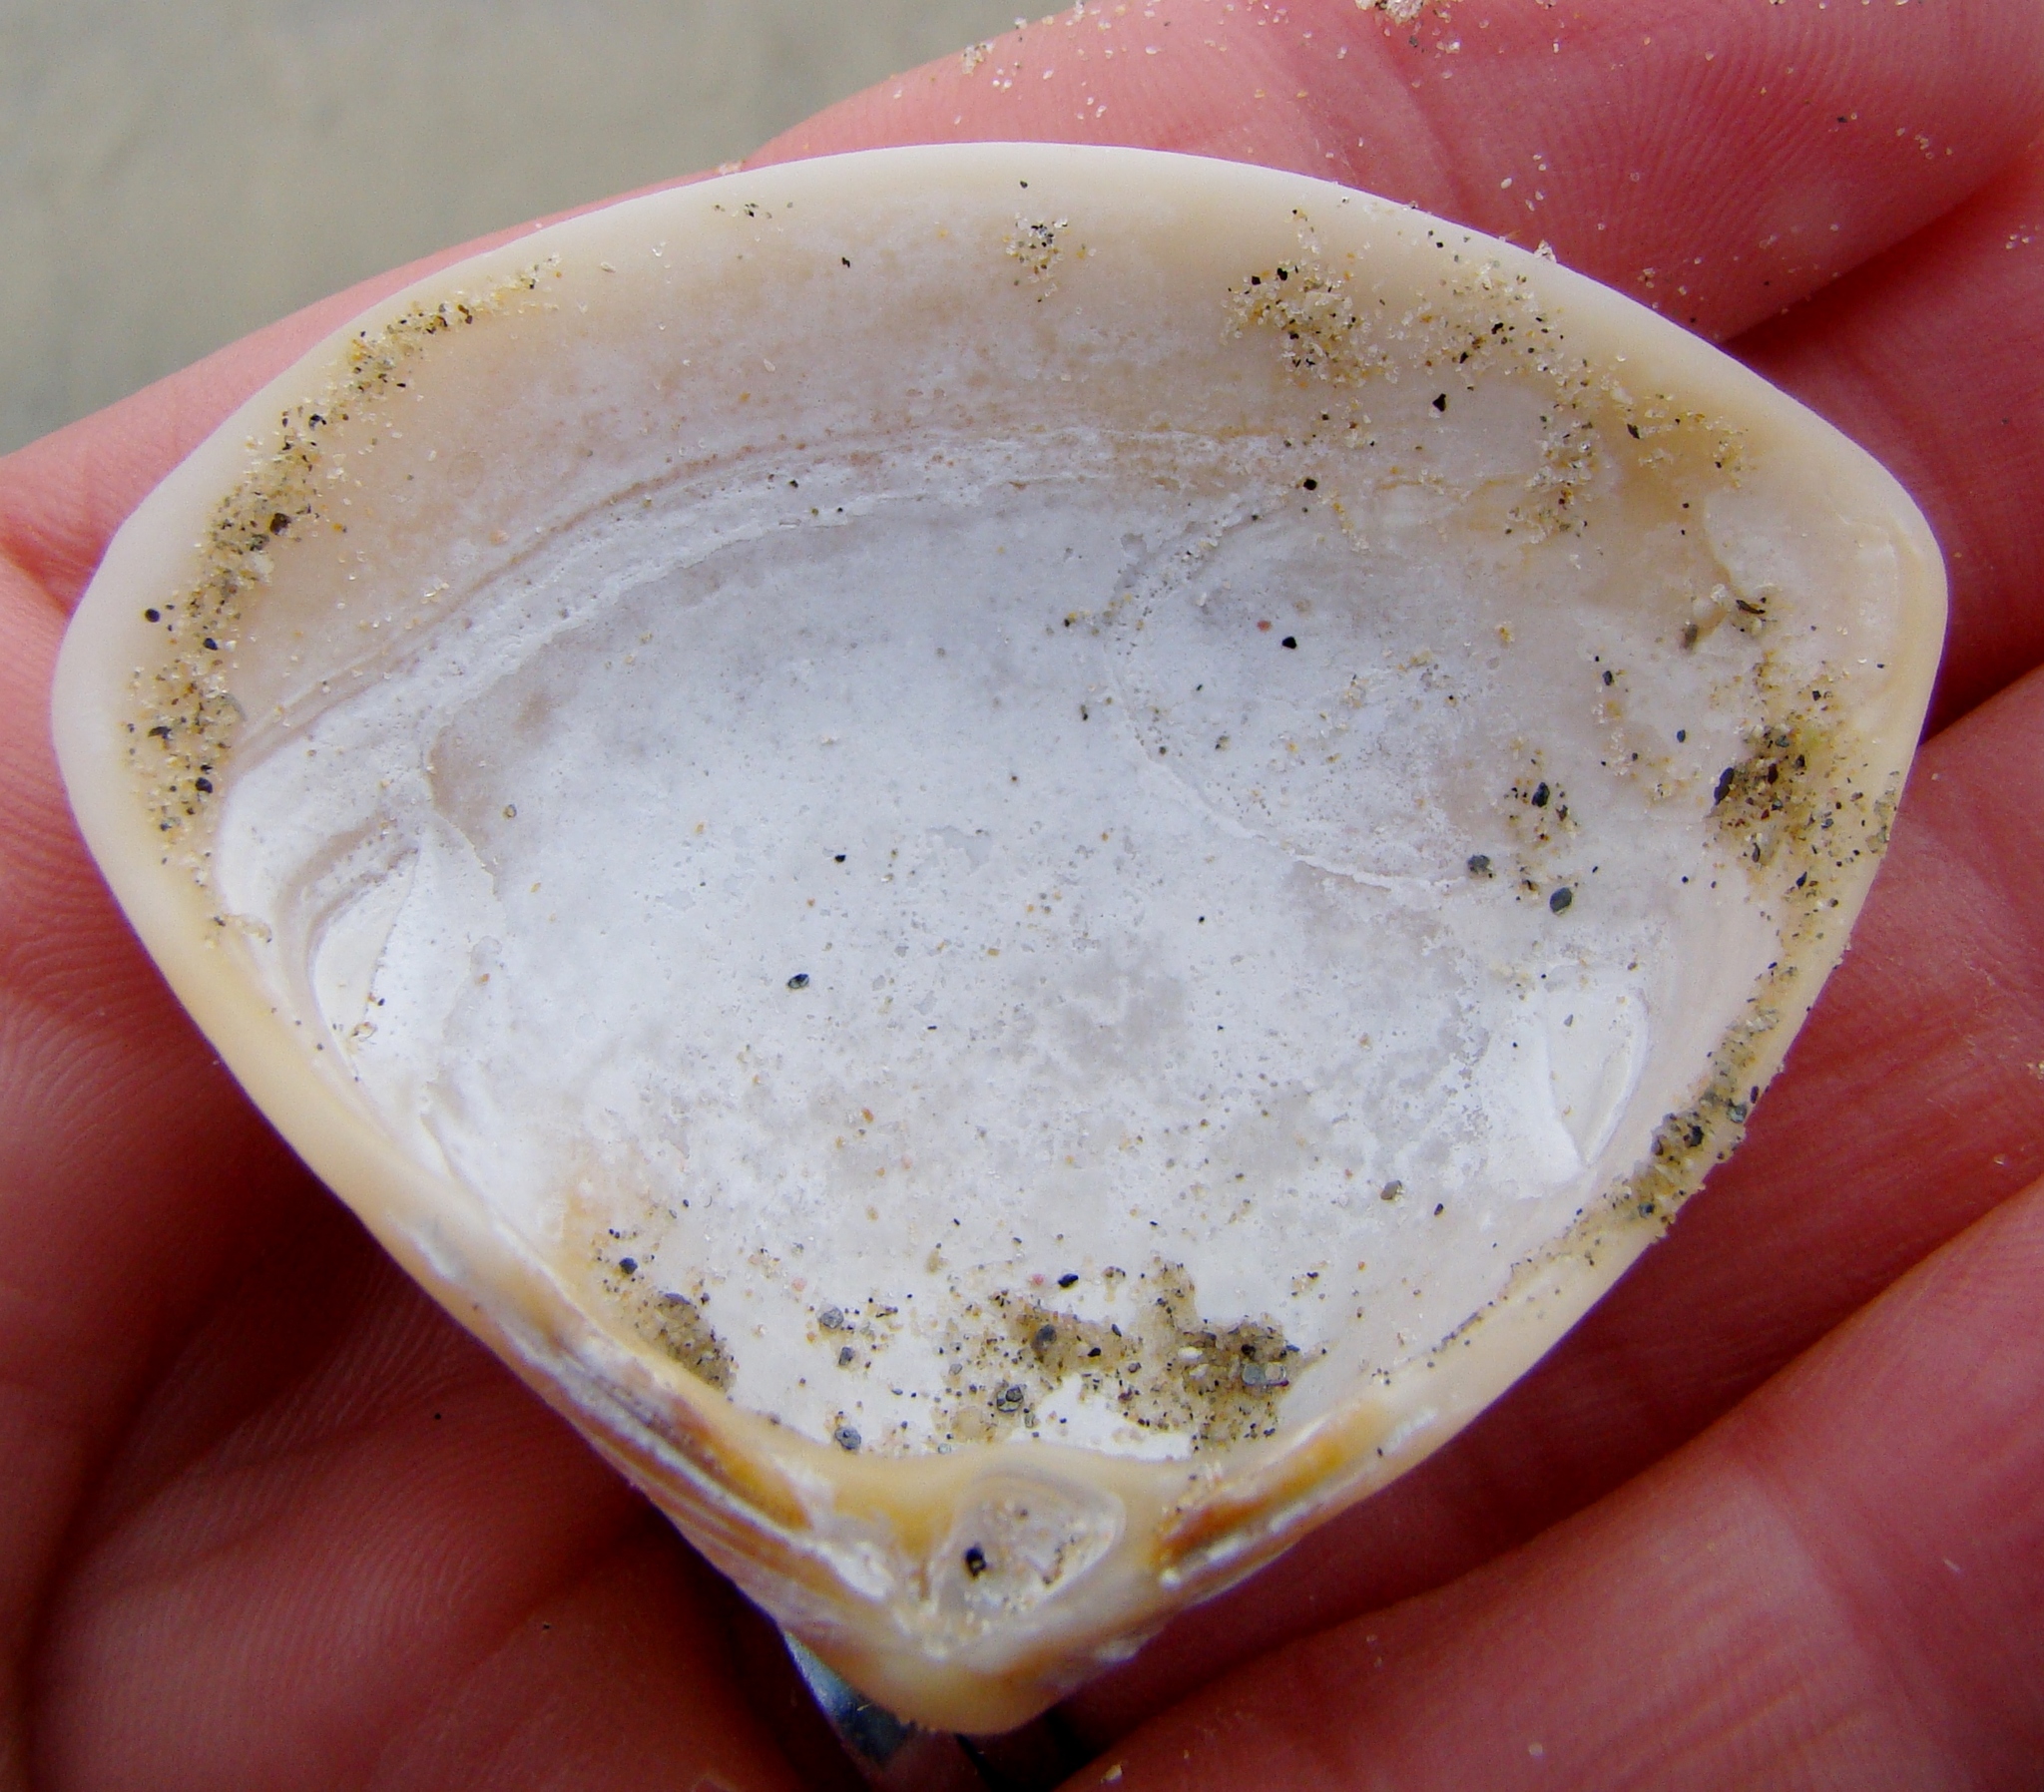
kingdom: Animalia
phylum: Mollusca
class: Bivalvia
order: Venerida
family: Mactridae
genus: Crassula
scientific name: Crassula aequilatera
